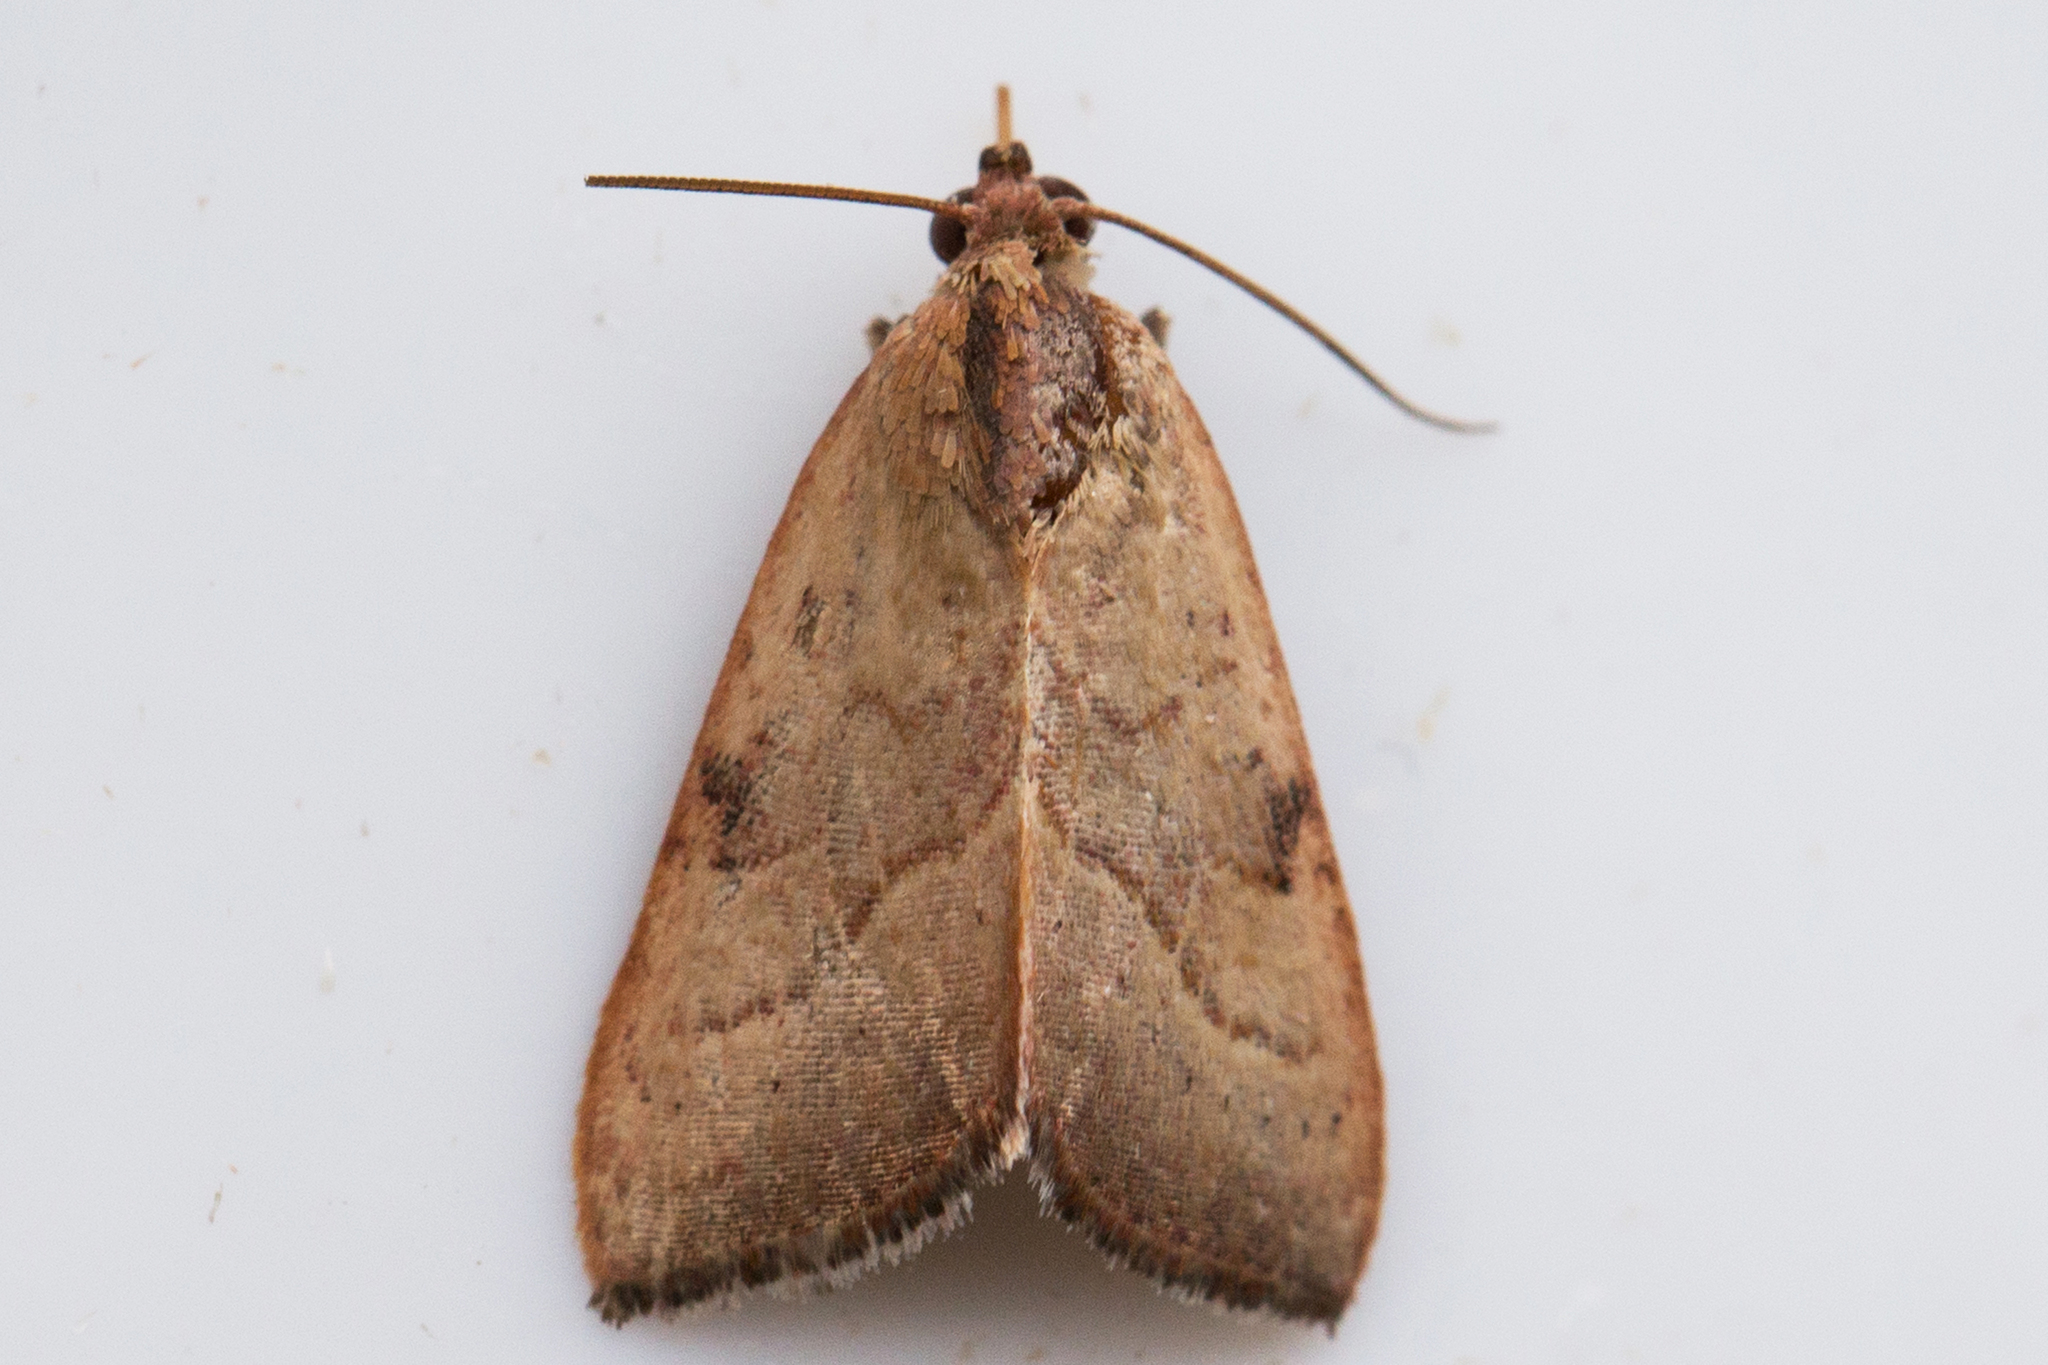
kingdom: Animalia
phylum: Arthropoda
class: Insecta
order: Lepidoptera
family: Noctuidae
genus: Galgula
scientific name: Galgula partita
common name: Wedgeling
